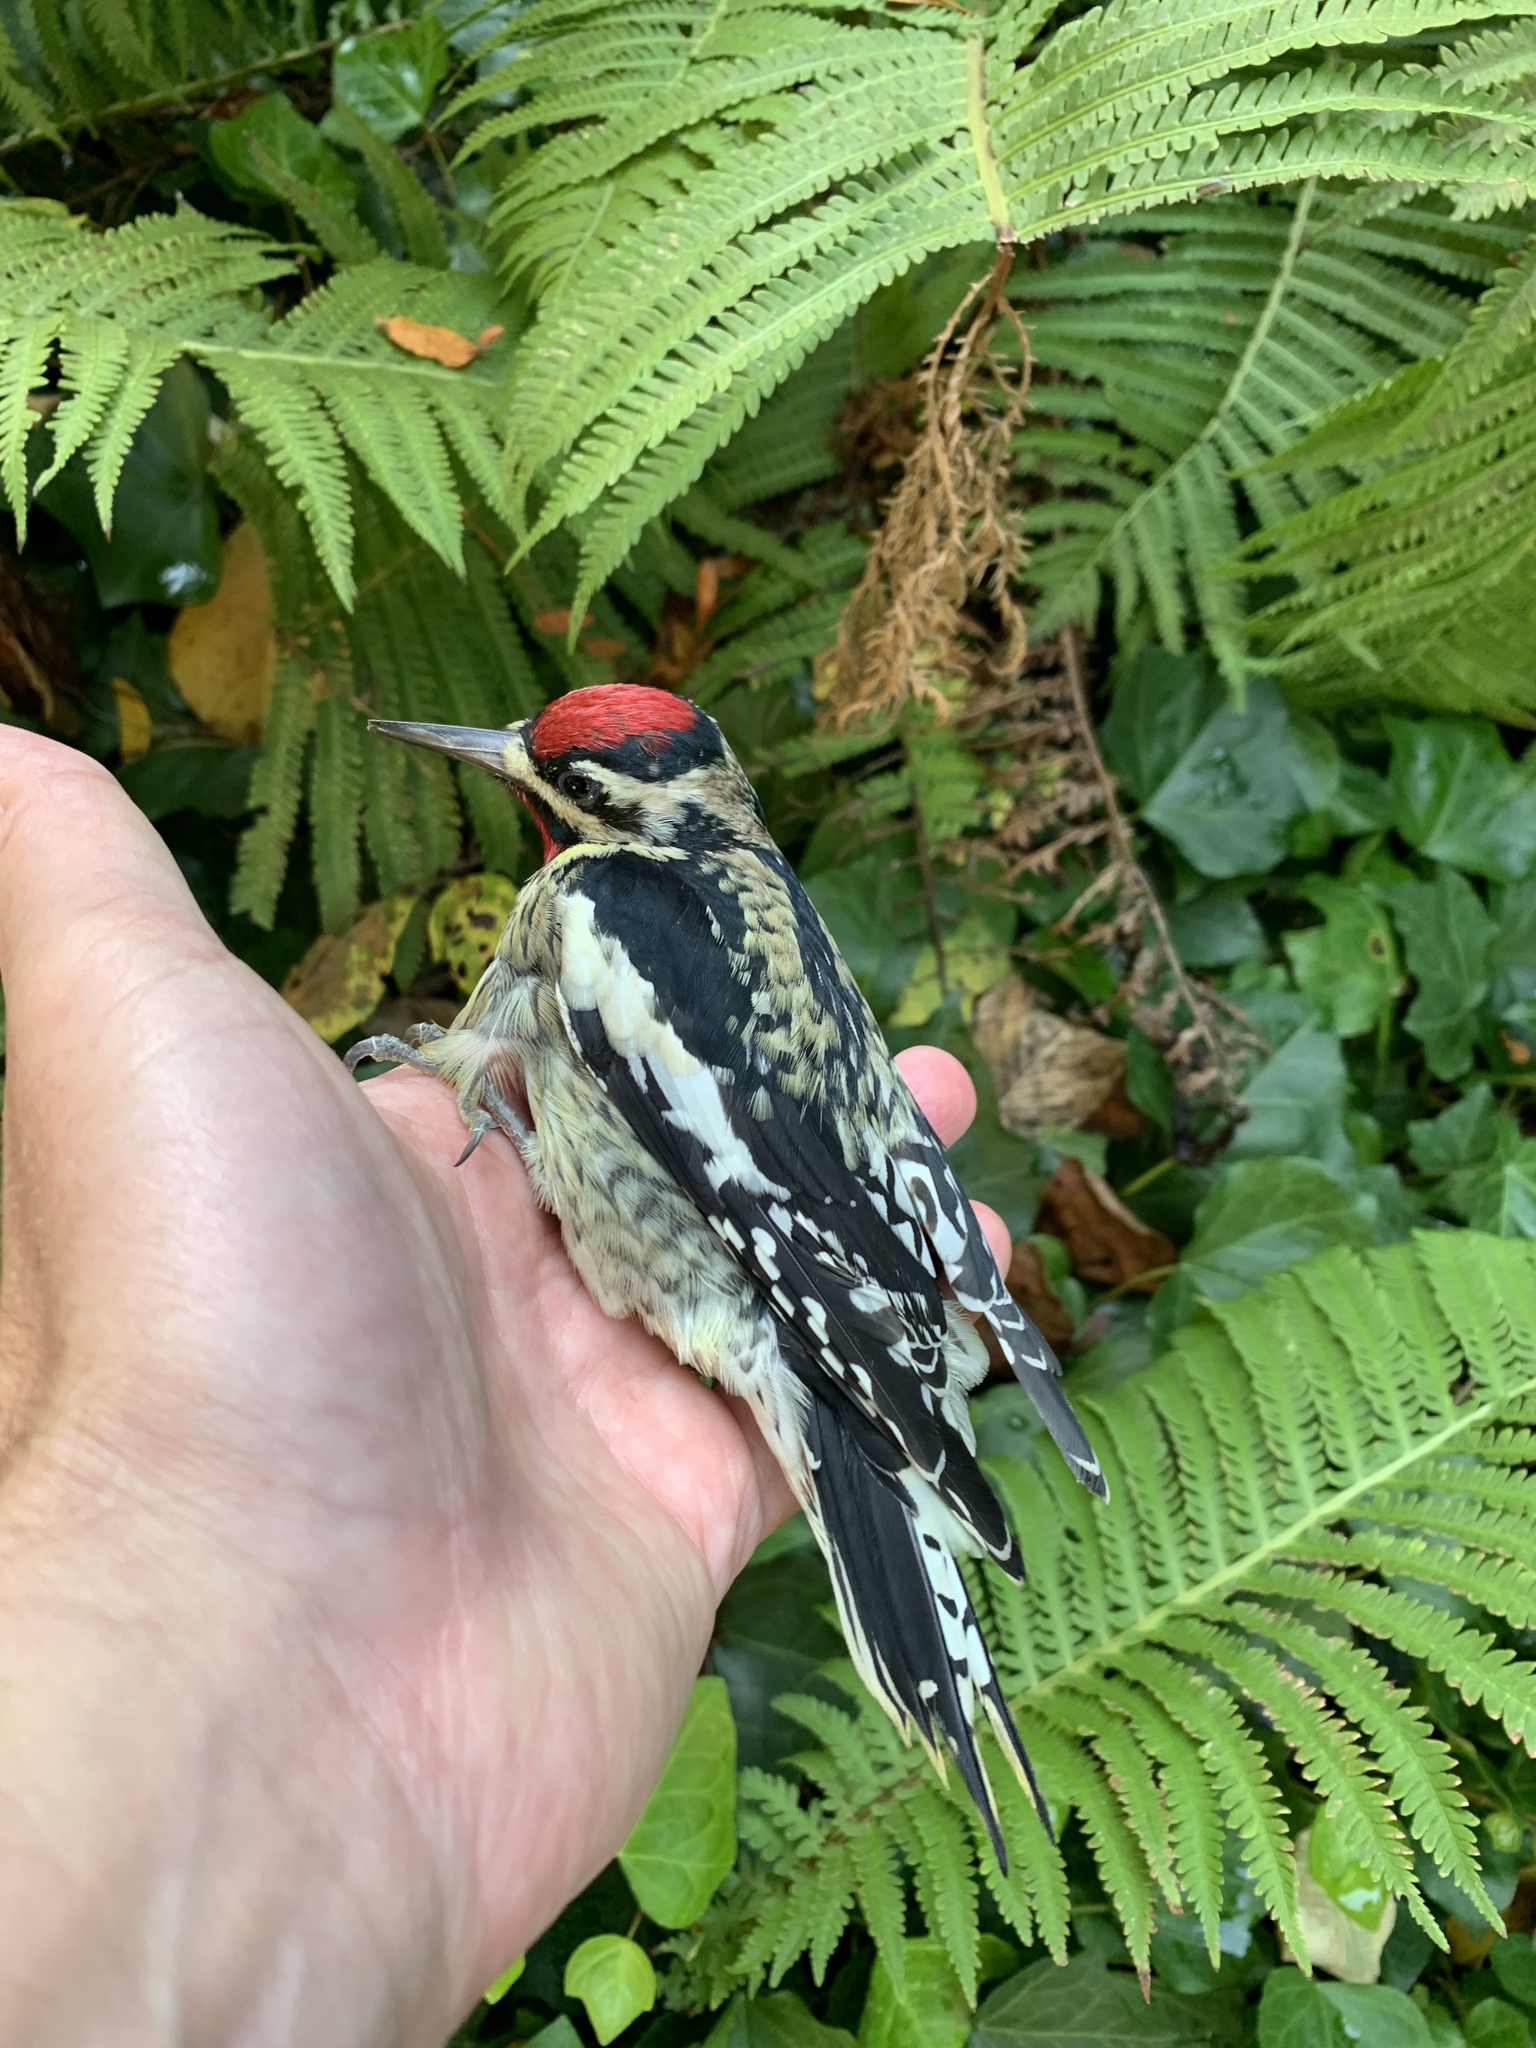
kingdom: Animalia
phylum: Chordata
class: Aves
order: Piciformes
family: Picidae
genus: Sphyrapicus
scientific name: Sphyrapicus varius
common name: Yellow-bellied sapsucker
